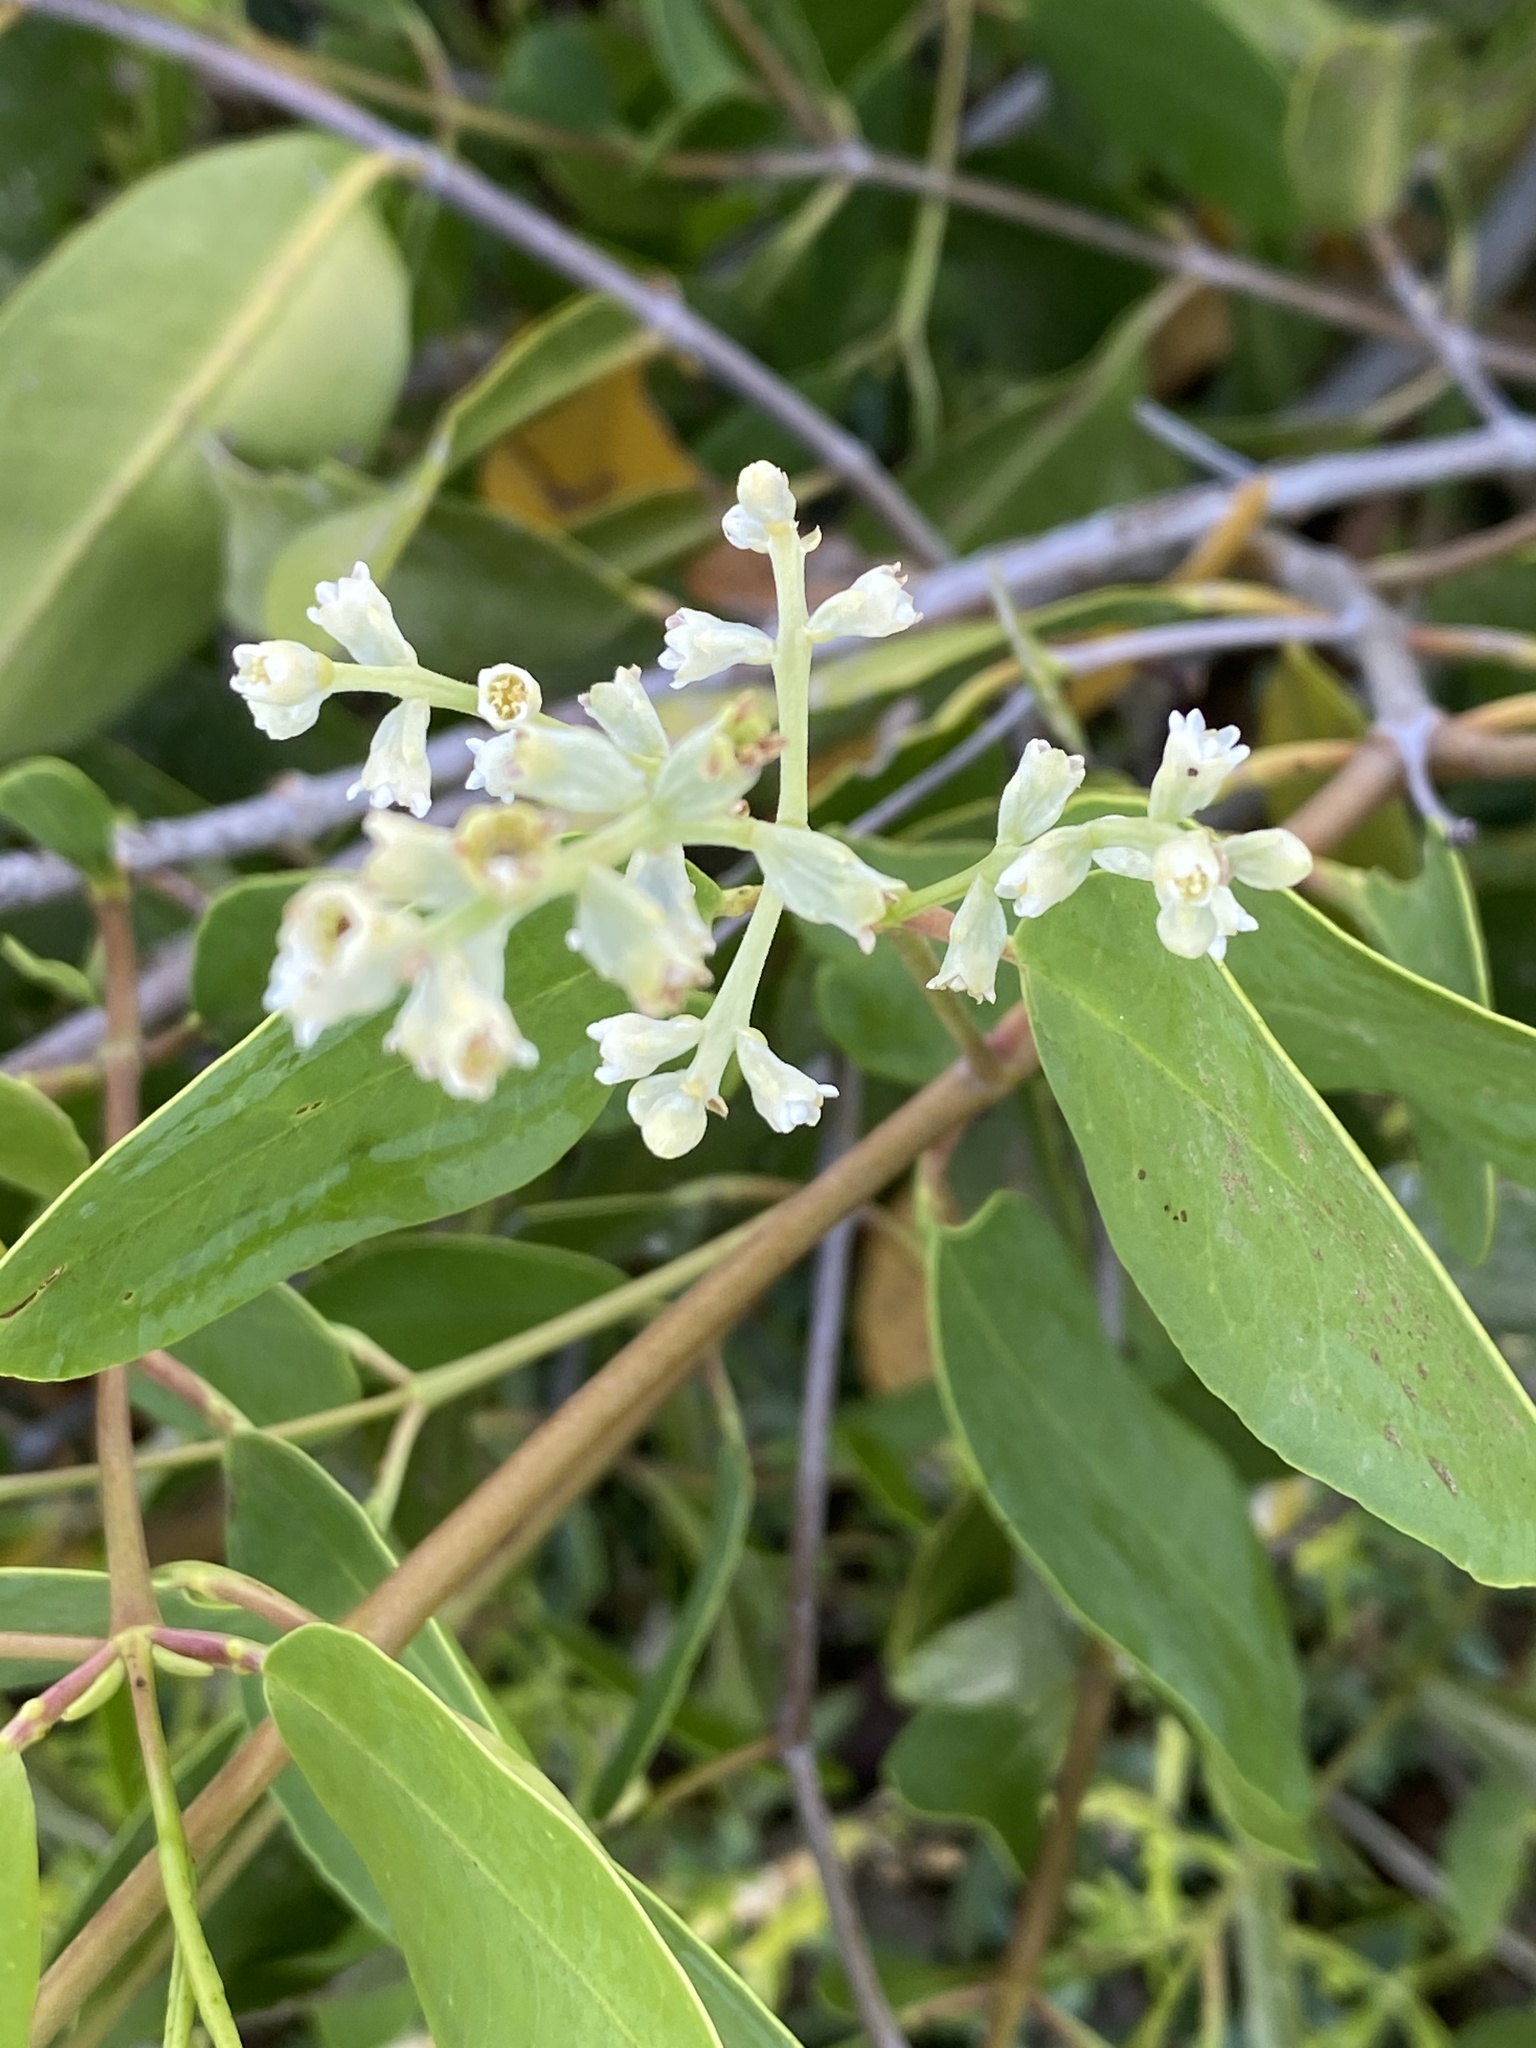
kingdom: Plantae
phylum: Tracheophyta
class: Magnoliopsida
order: Myrtales
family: Combretaceae
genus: Laguncularia
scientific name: Laguncularia racemosa
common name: White mangrove
